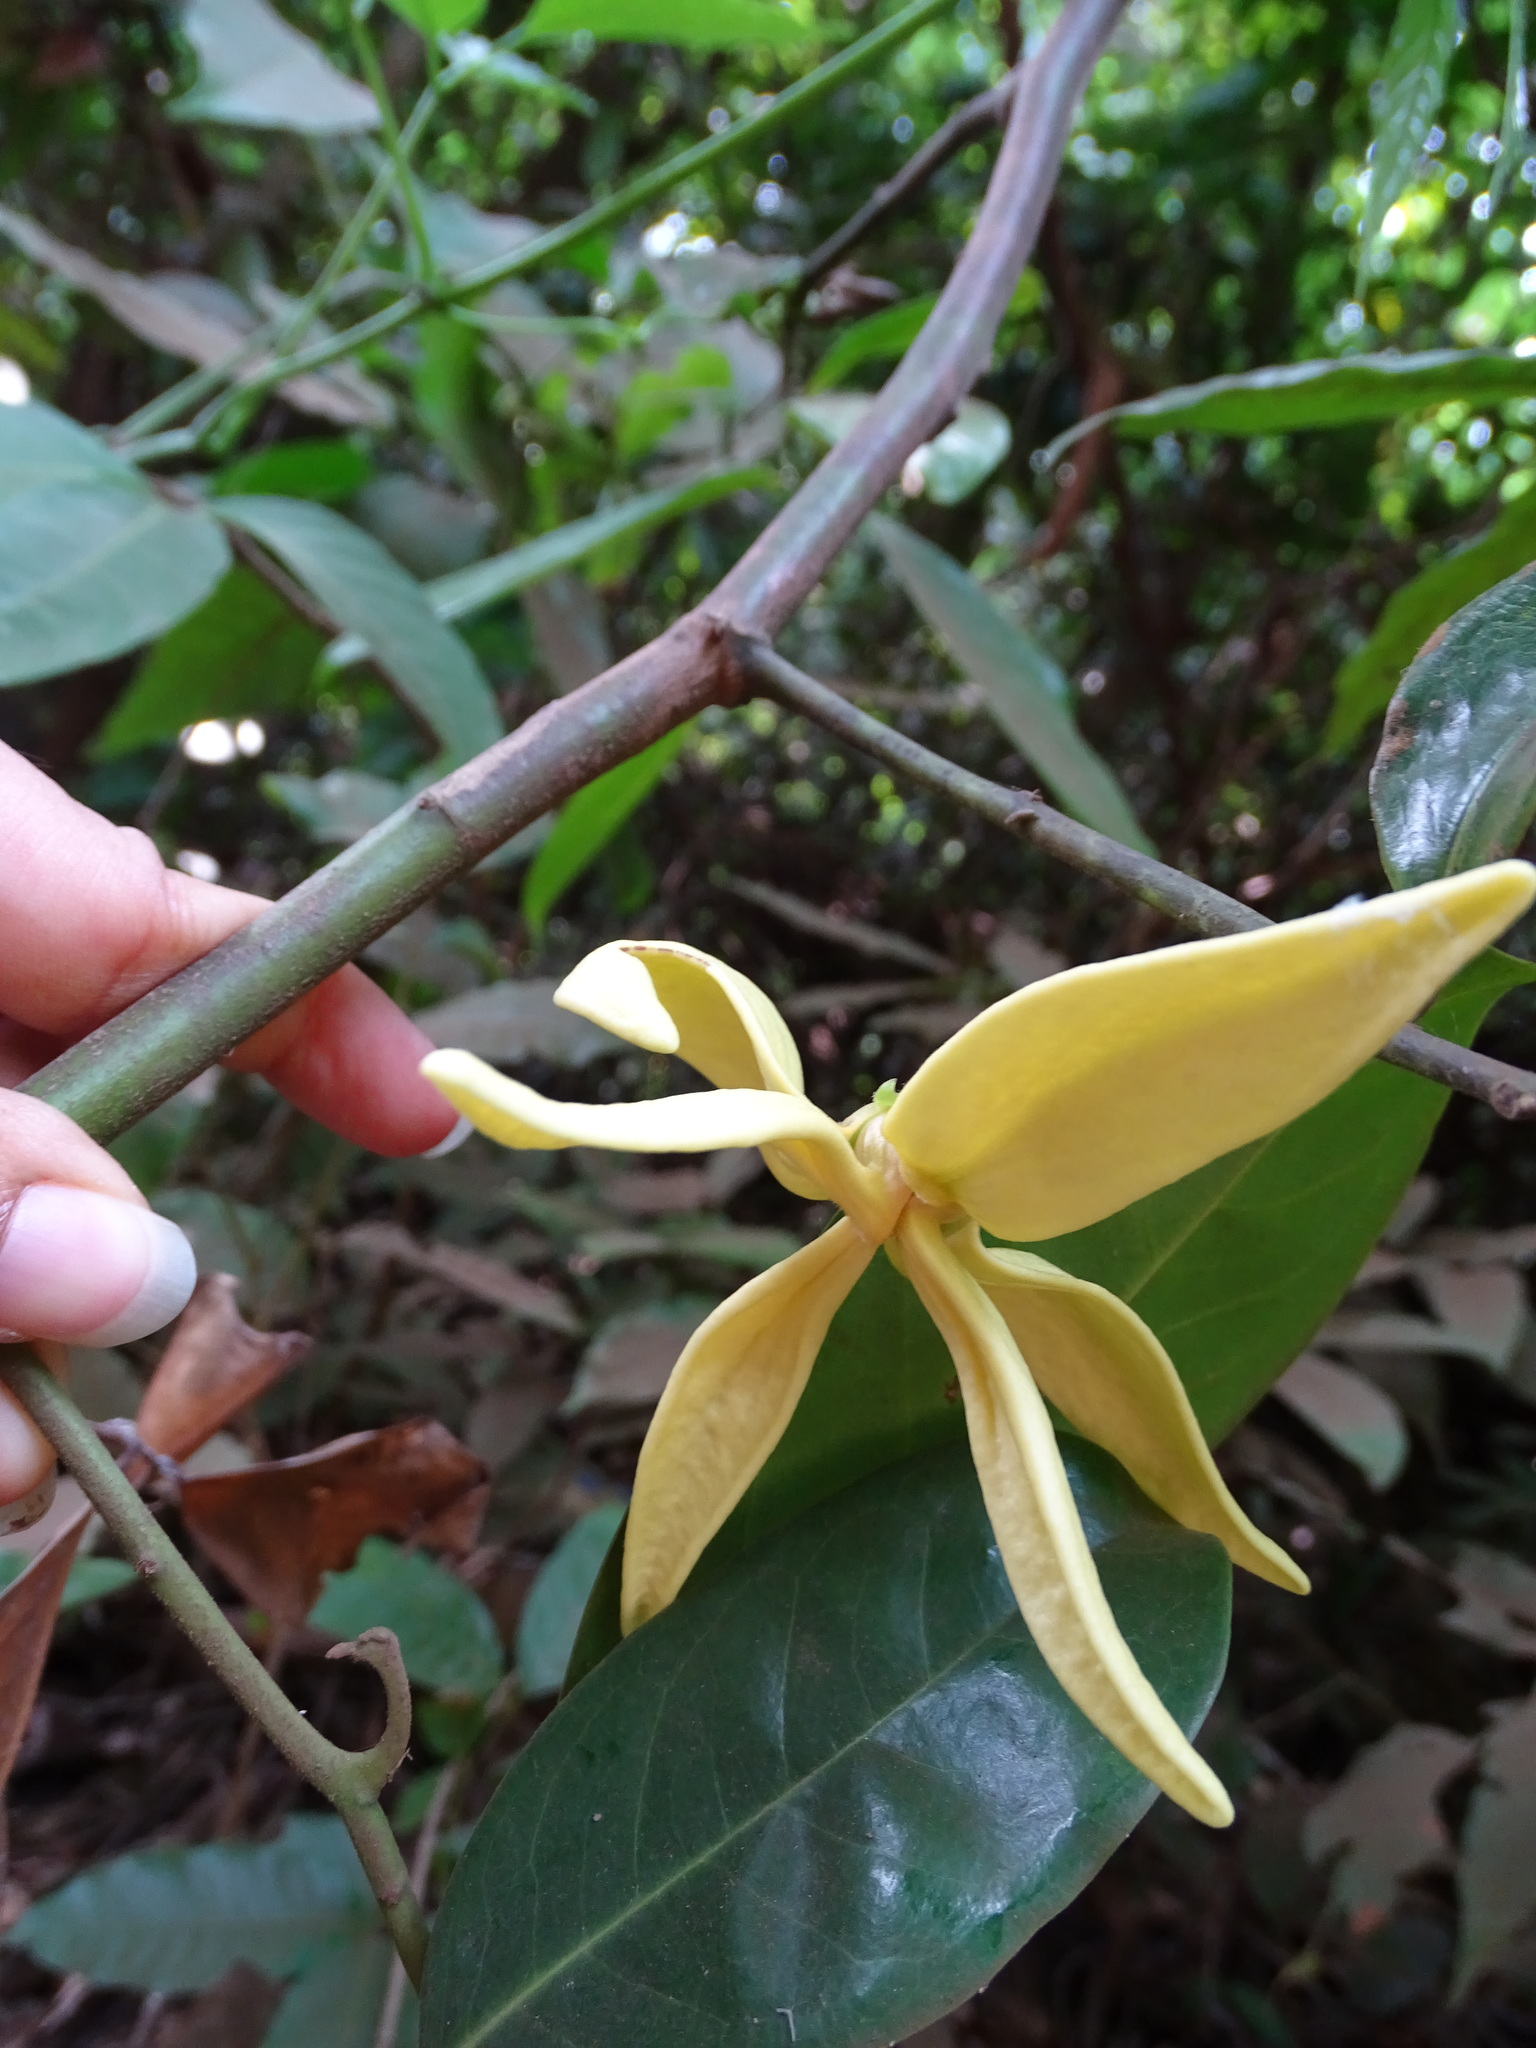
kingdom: Plantae
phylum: Tracheophyta
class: Magnoliopsida
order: Magnoliales
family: Annonaceae
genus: Artabotrys
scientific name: Artabotrys zeylanicus
